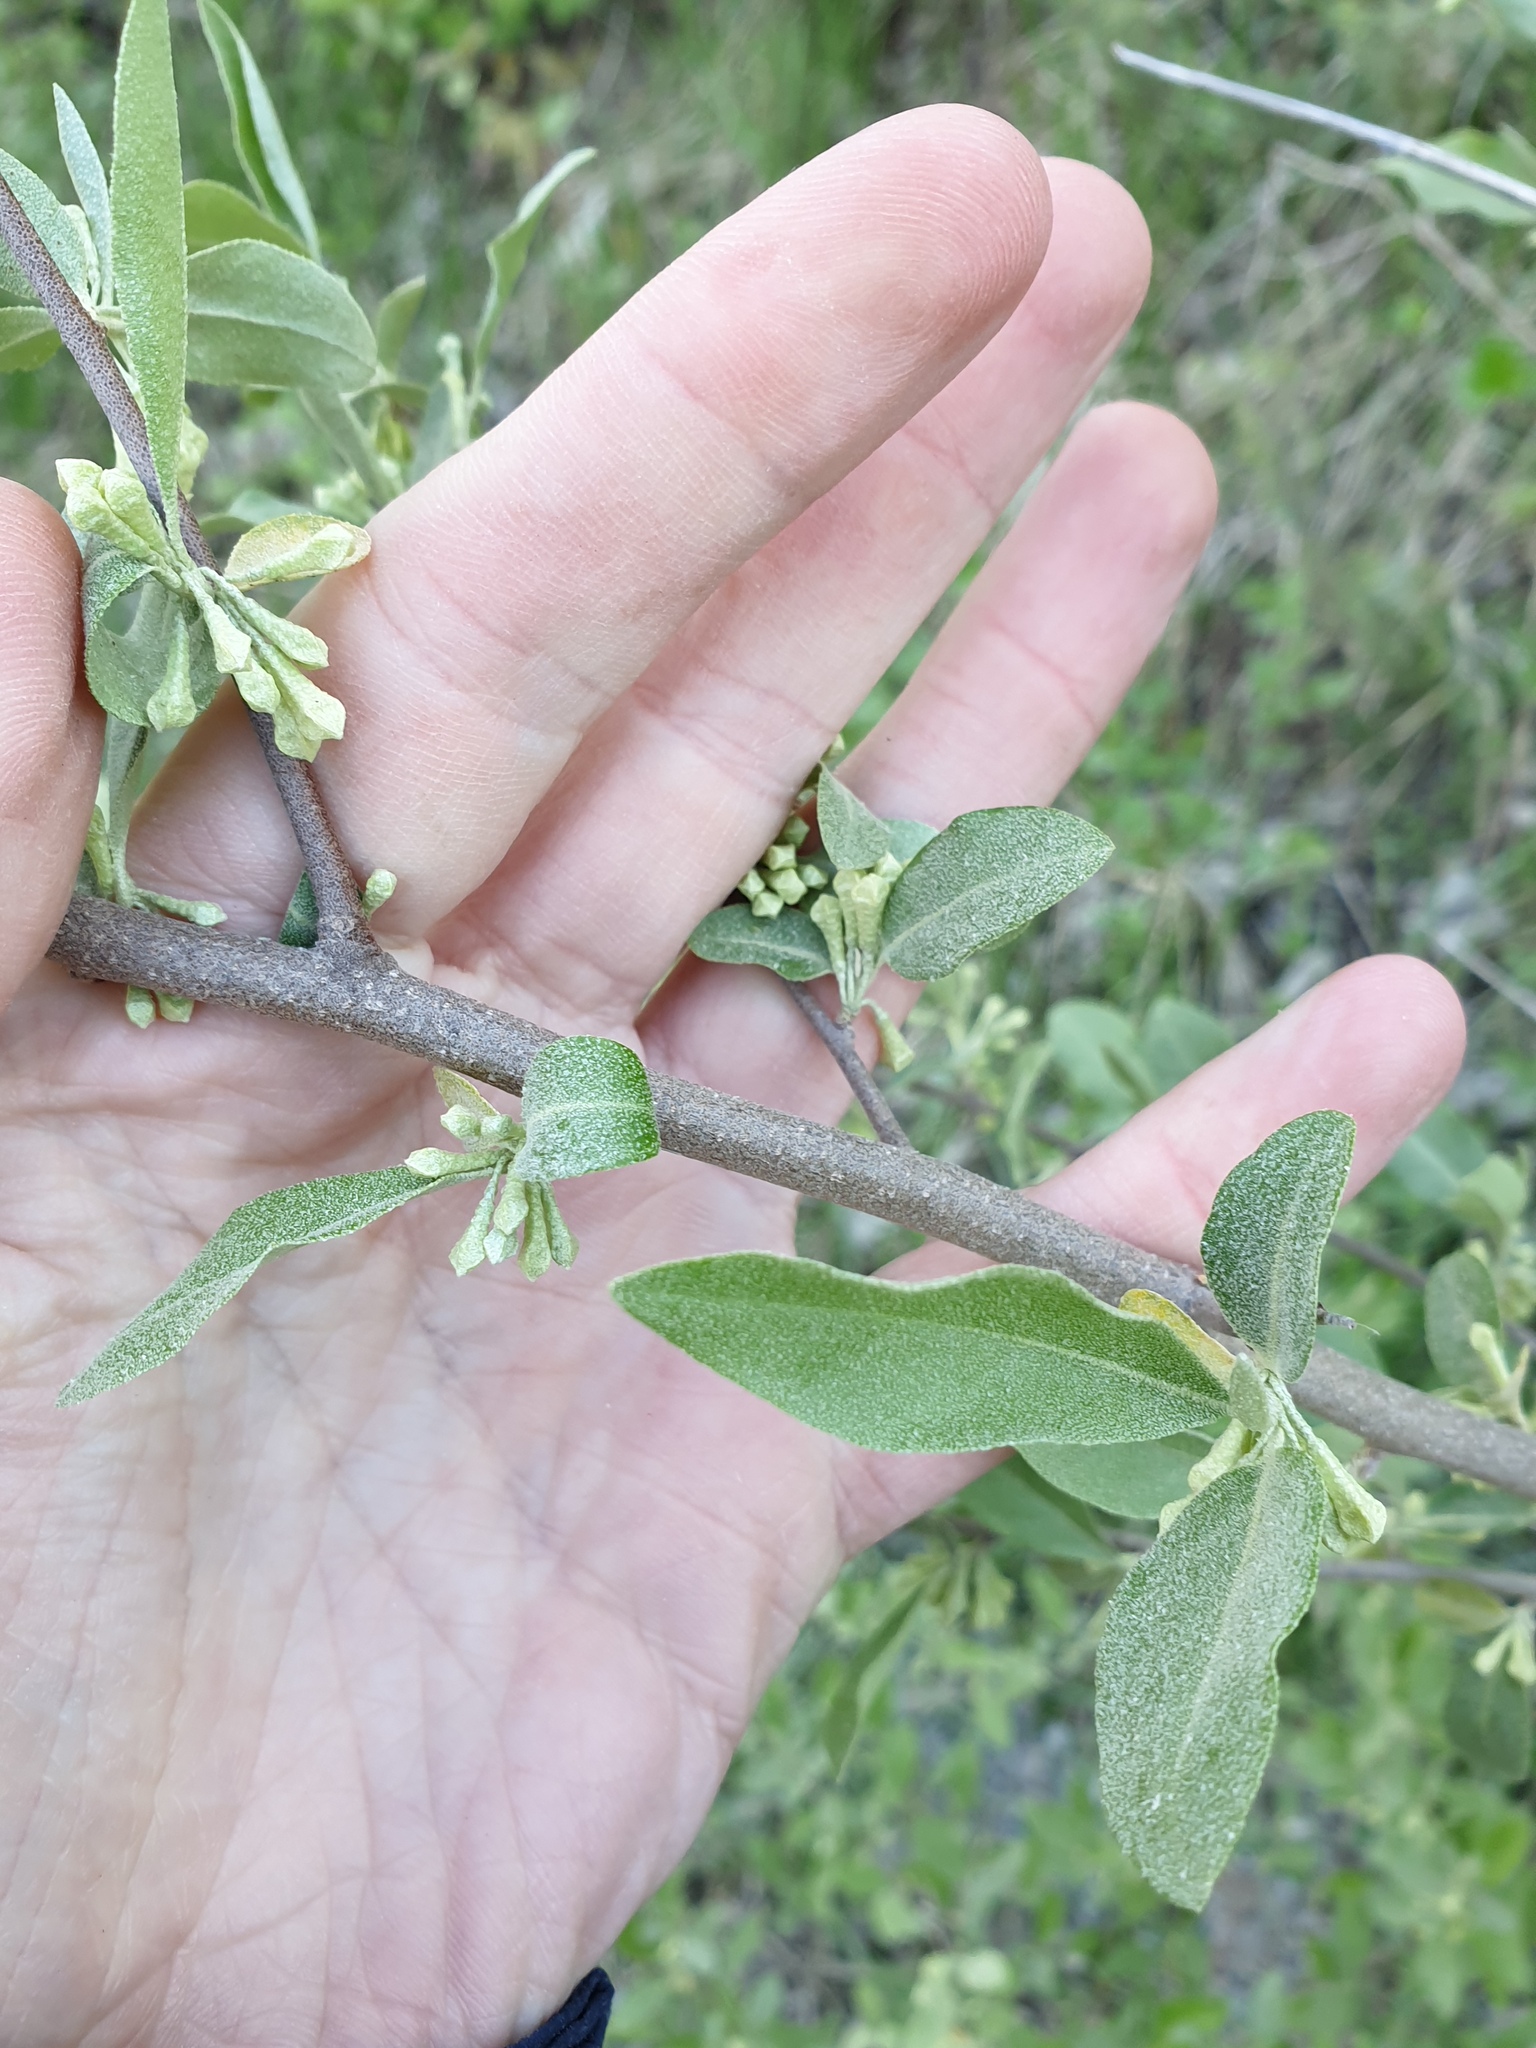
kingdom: Plantae
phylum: Tracheophyta
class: Magnoliopsida
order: Rosales
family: Elaeagnaceae
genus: Elaeagnus
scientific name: Elaeagnus umbellata
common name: Autumn olive
